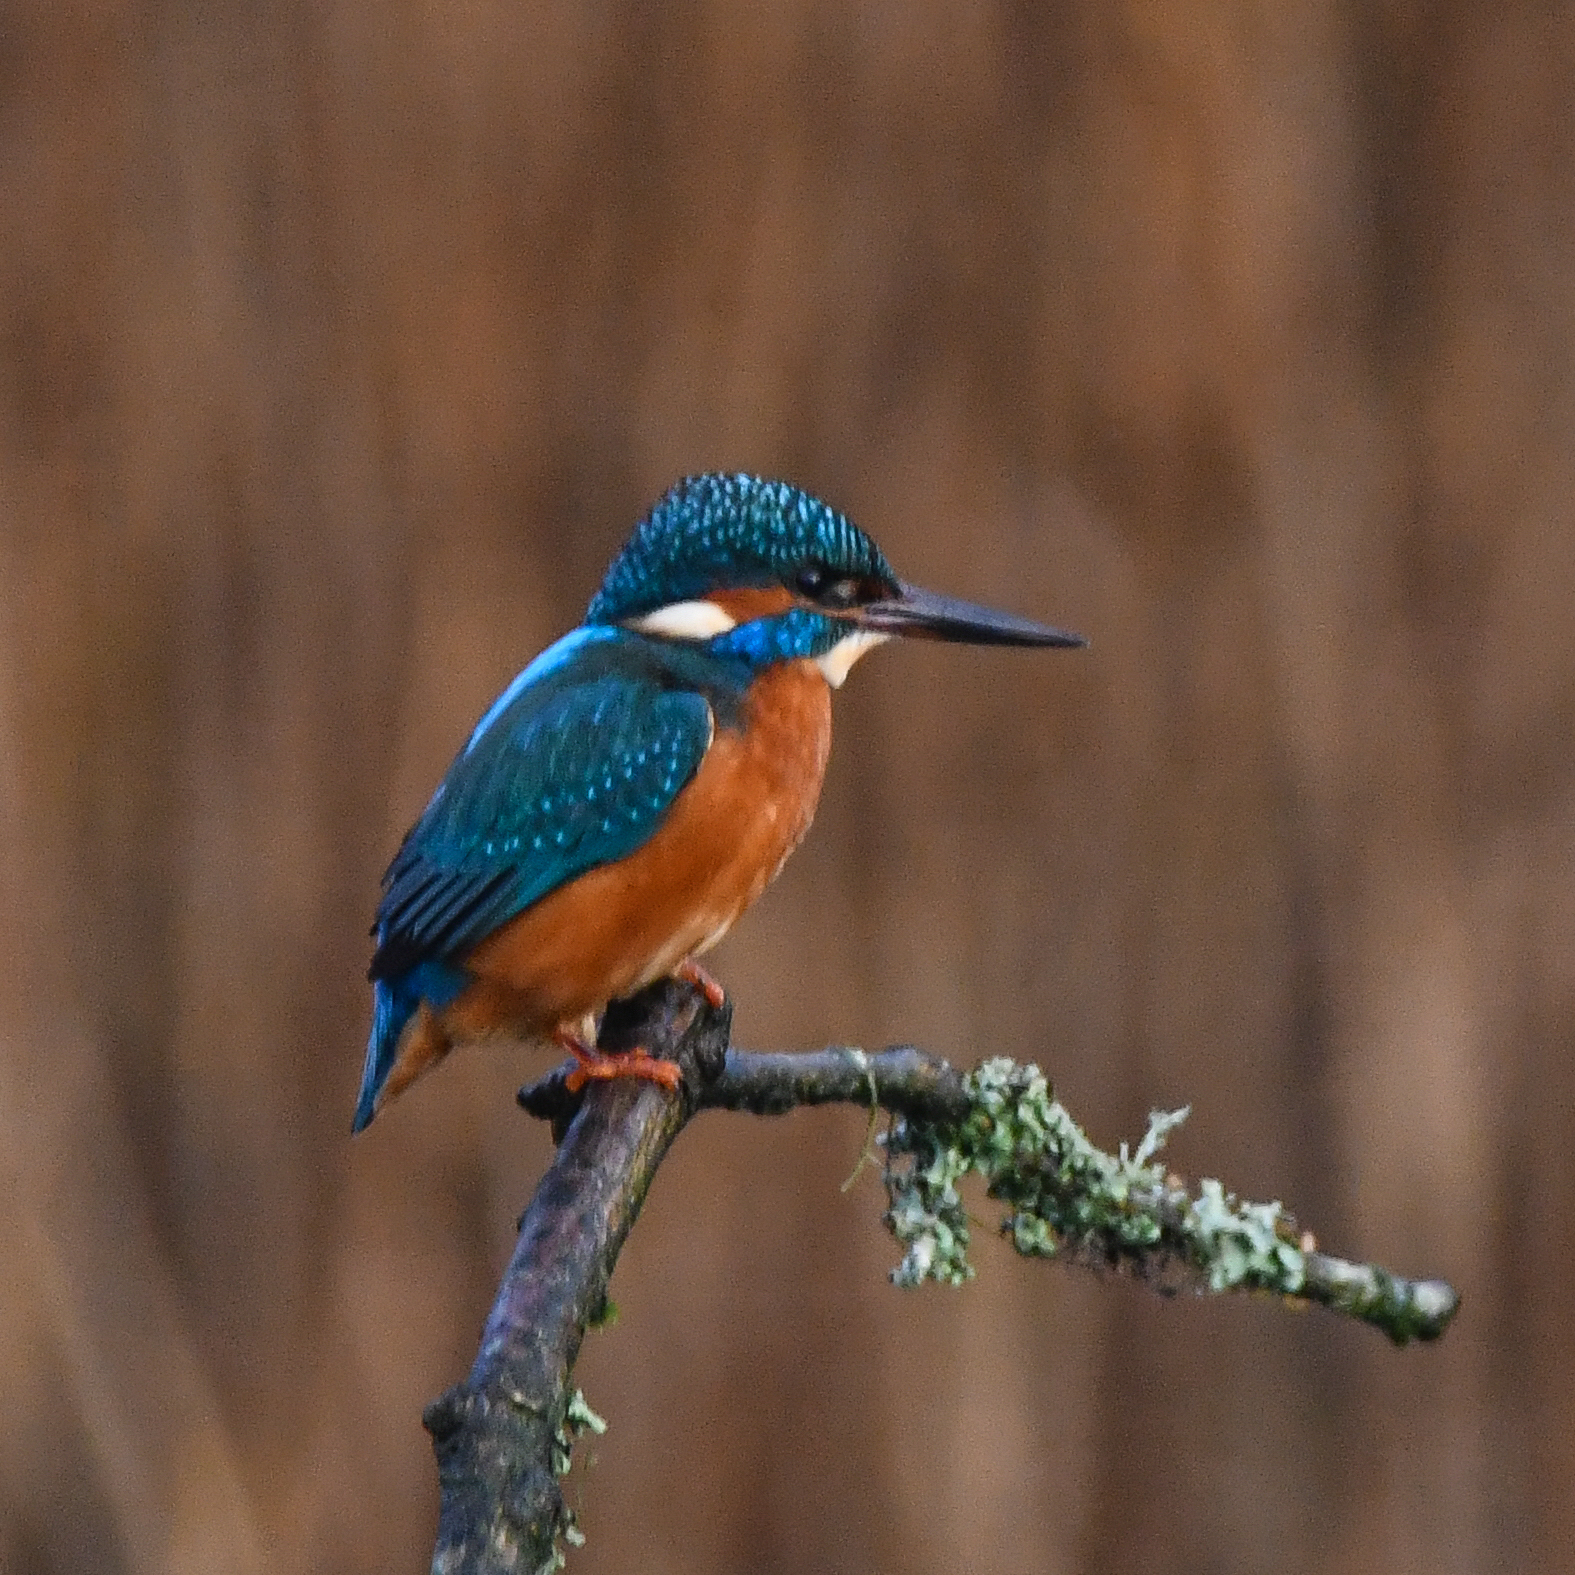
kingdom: Animalia
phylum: Chordata
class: Aves
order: Coraciiformes
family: Alcedinidae
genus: Alcedo
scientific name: Alcedo atthis
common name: Common kingfisher
